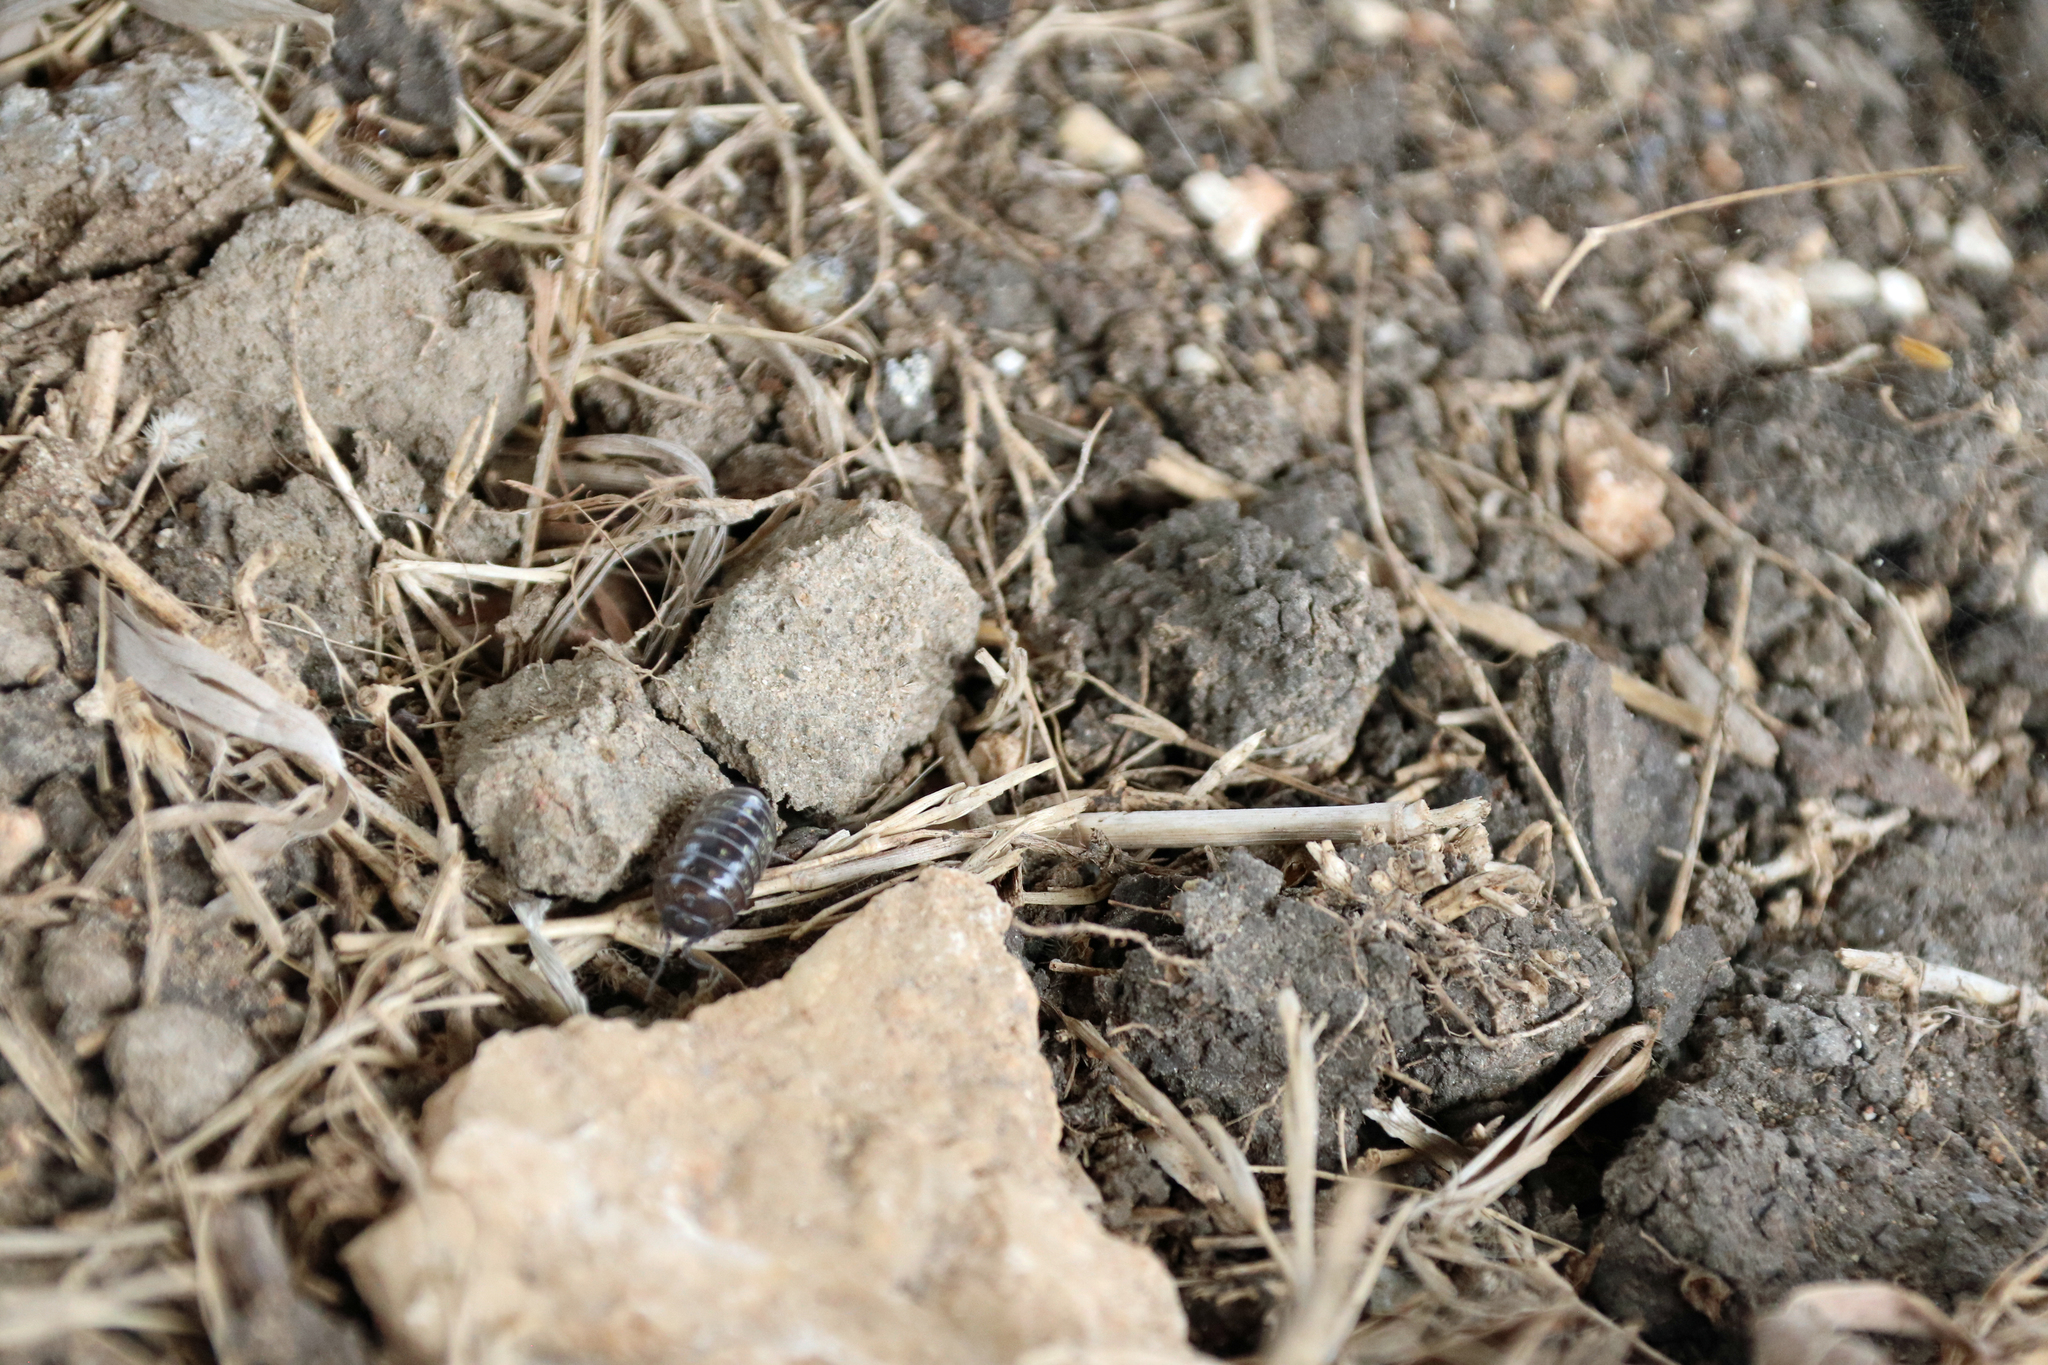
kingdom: Animalia
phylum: Arthropoda
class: Malacostraca
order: Isopoda
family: Armadillidiidae
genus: Armadillidium
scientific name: Armadillidium vulgare
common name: Common pill woodlouse
